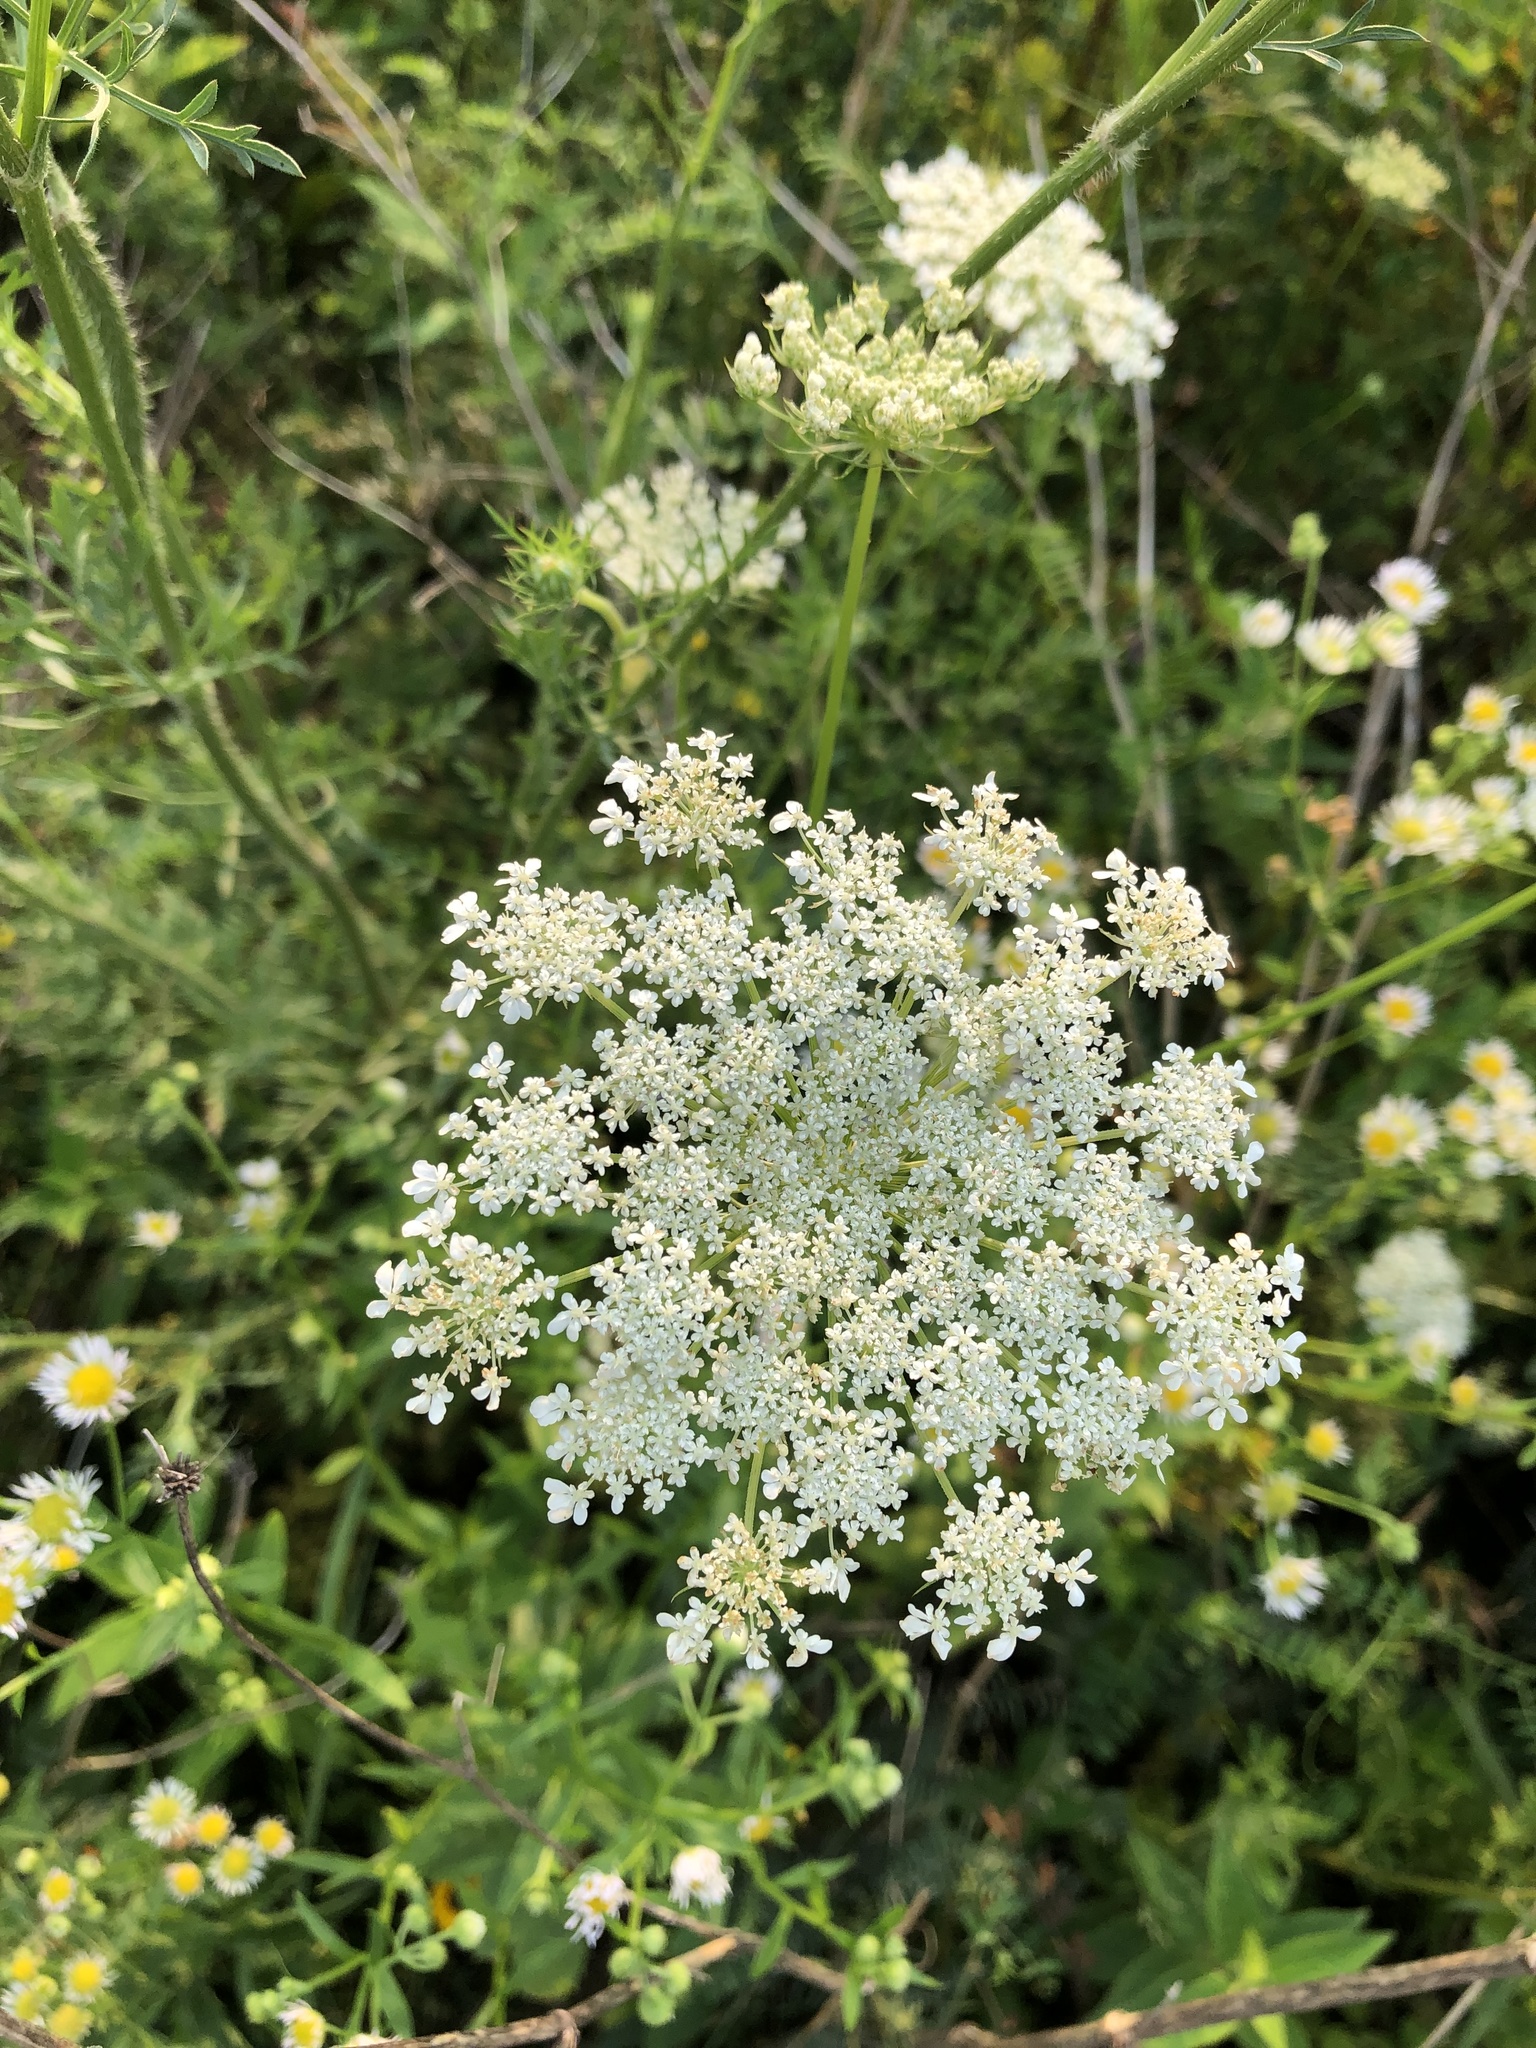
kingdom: Plantae
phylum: Tracheophyta
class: Magnoliopsida
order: Apiales
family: Apiaceae
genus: Daucus
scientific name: Daucus carota
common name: Wild carrot
